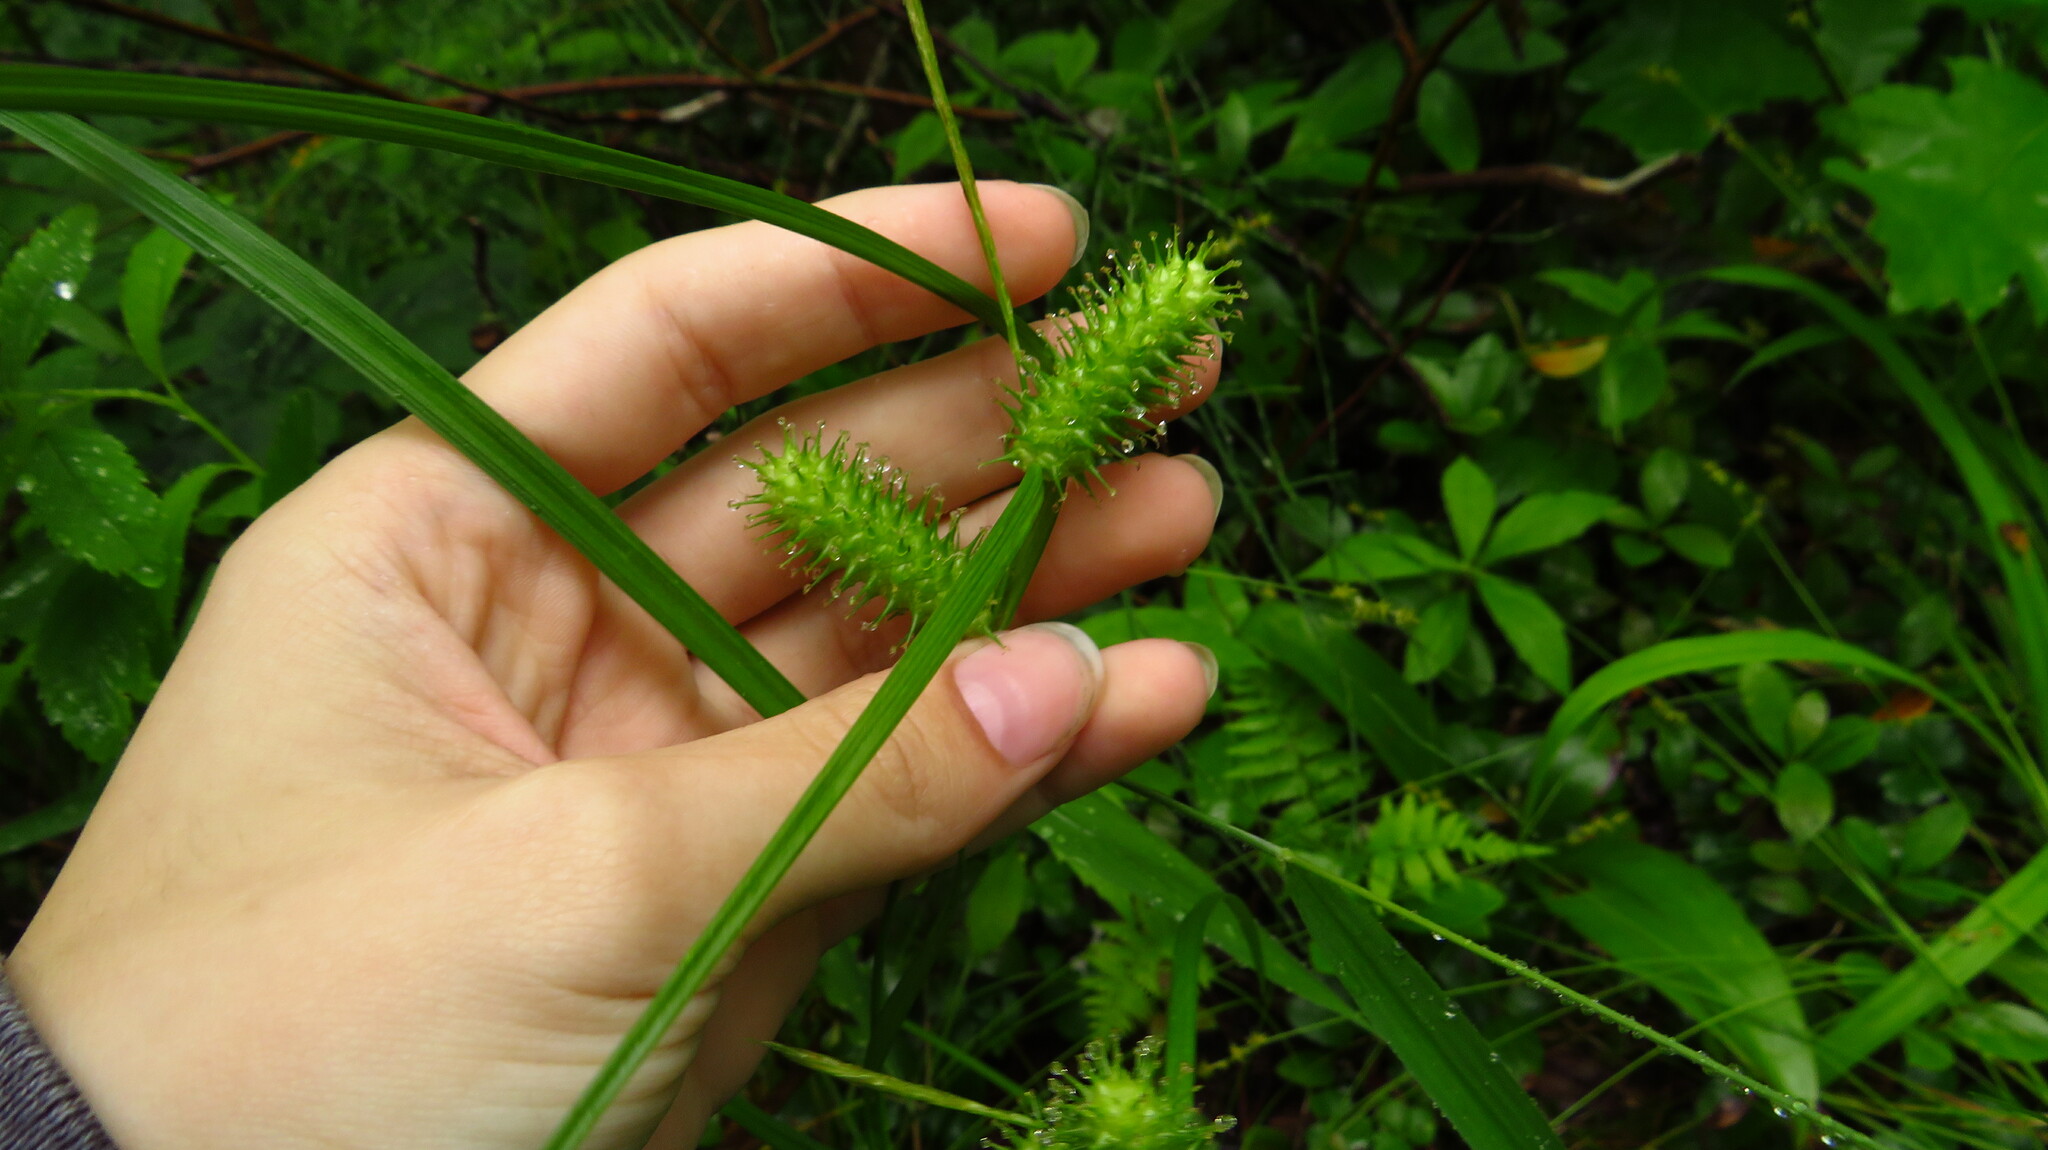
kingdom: Plantae
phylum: Tracheophyta
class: Liliopsida
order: Poales
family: Cyperaceae
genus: Carex
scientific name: Carex lurida
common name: Sallow sedge
